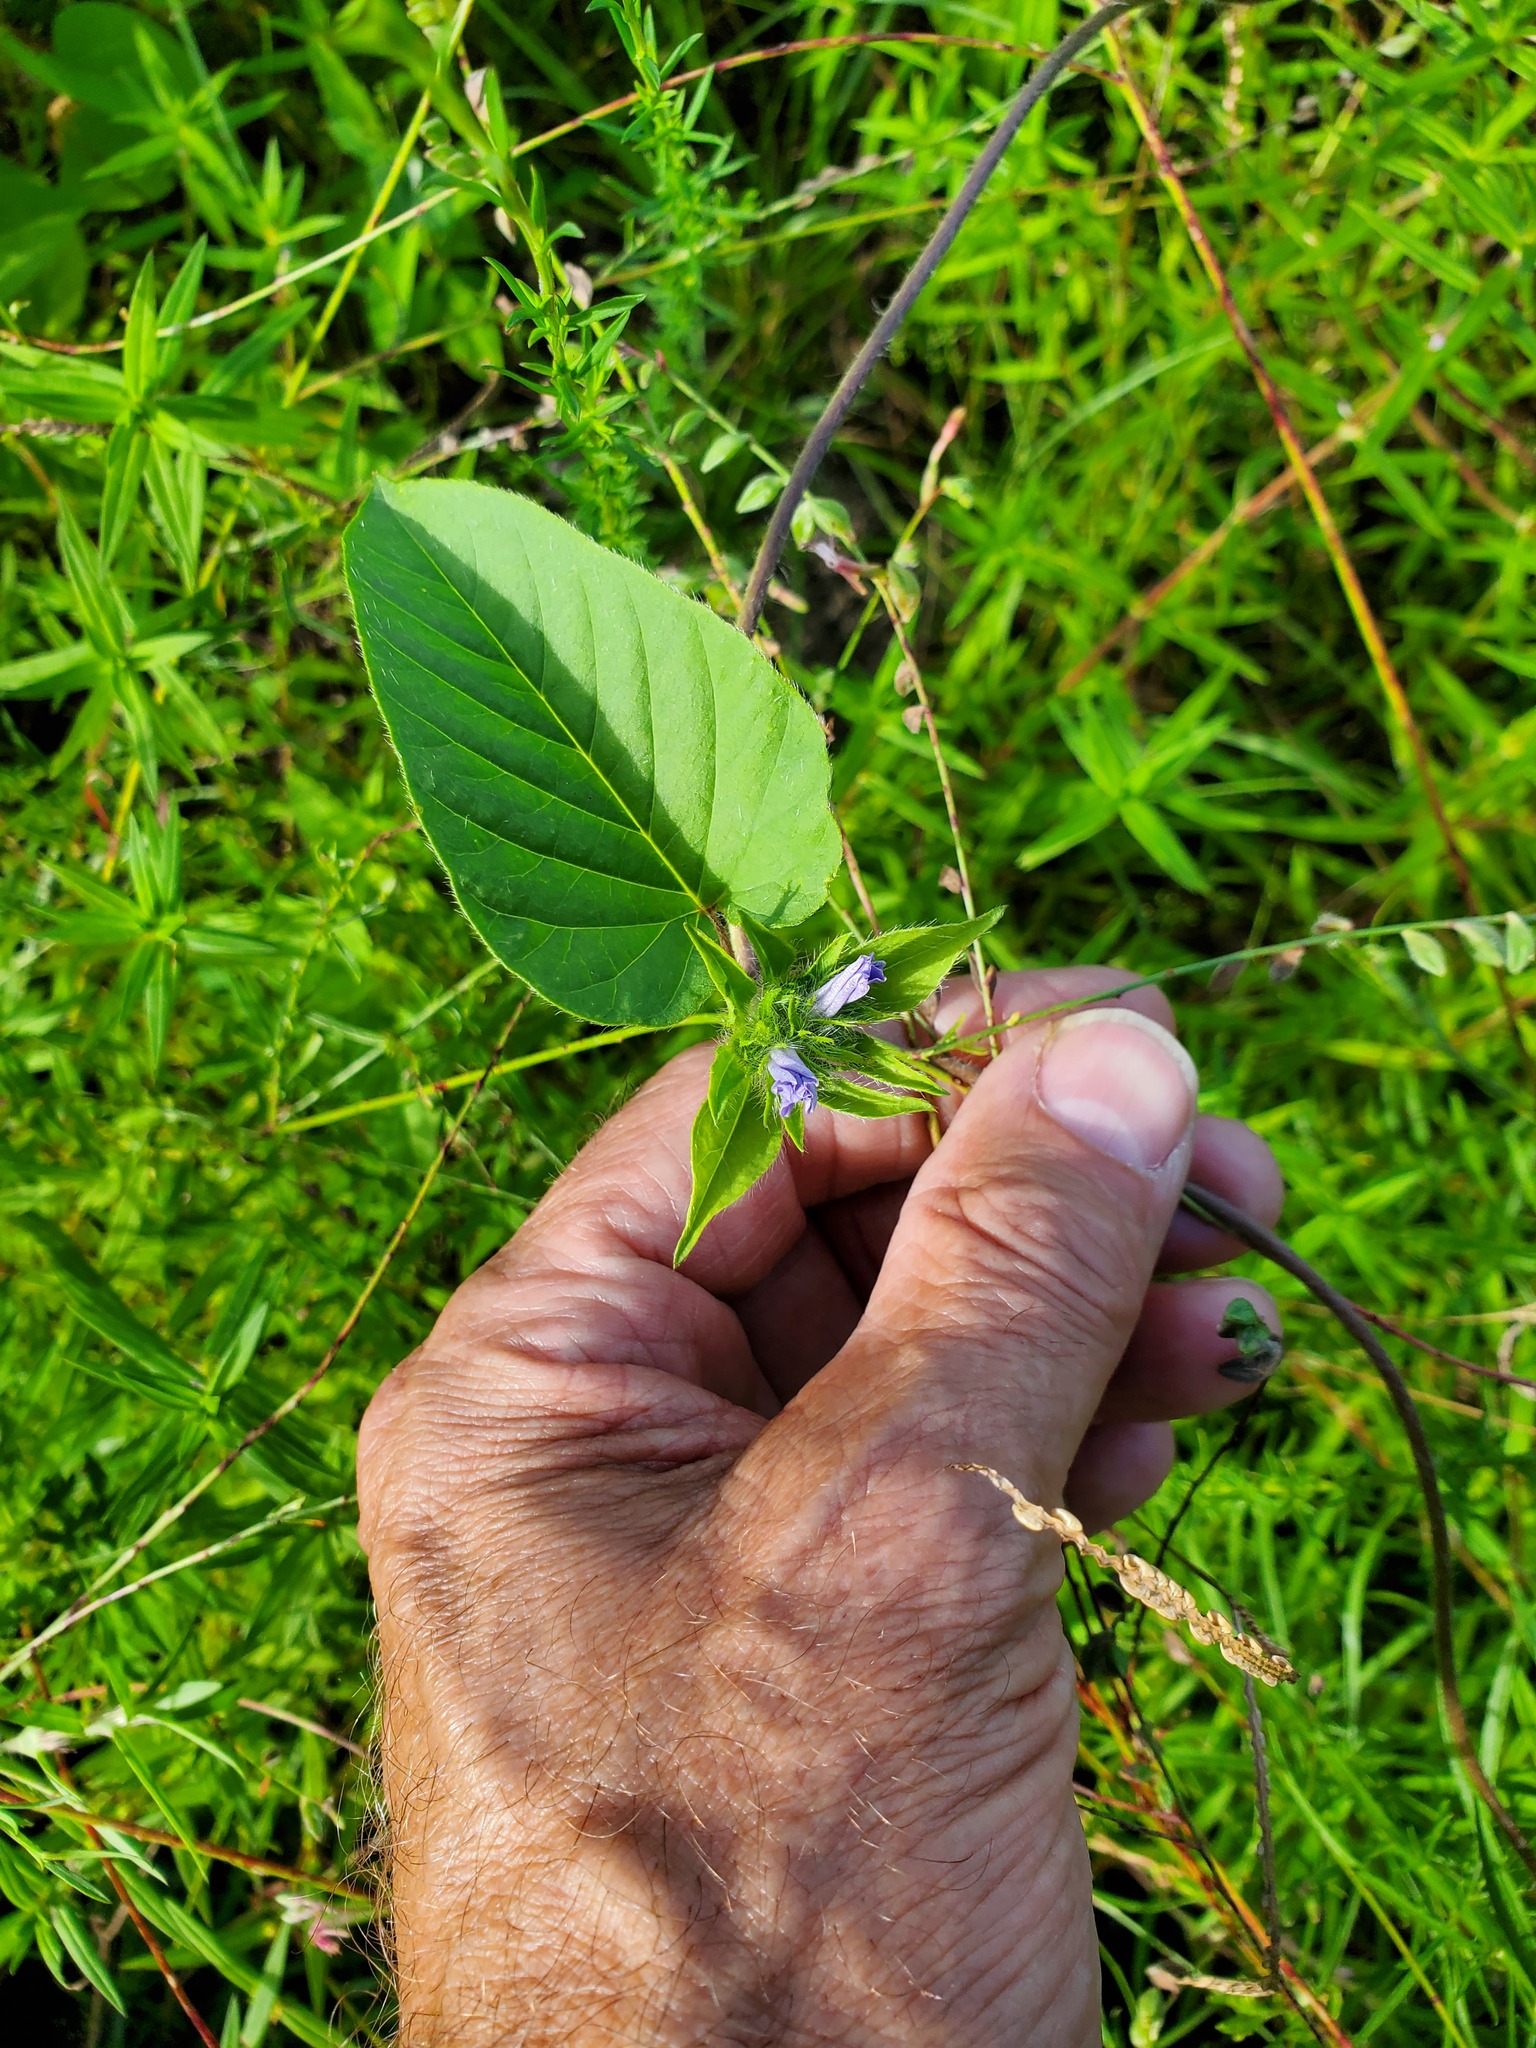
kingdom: Plantae
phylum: Tracheophyta
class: Magnoliopsida
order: Solanales
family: Convolvulaceae
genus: Jacquemontia
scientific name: Jacquemontia tamnifolia
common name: Hairy clustervine
